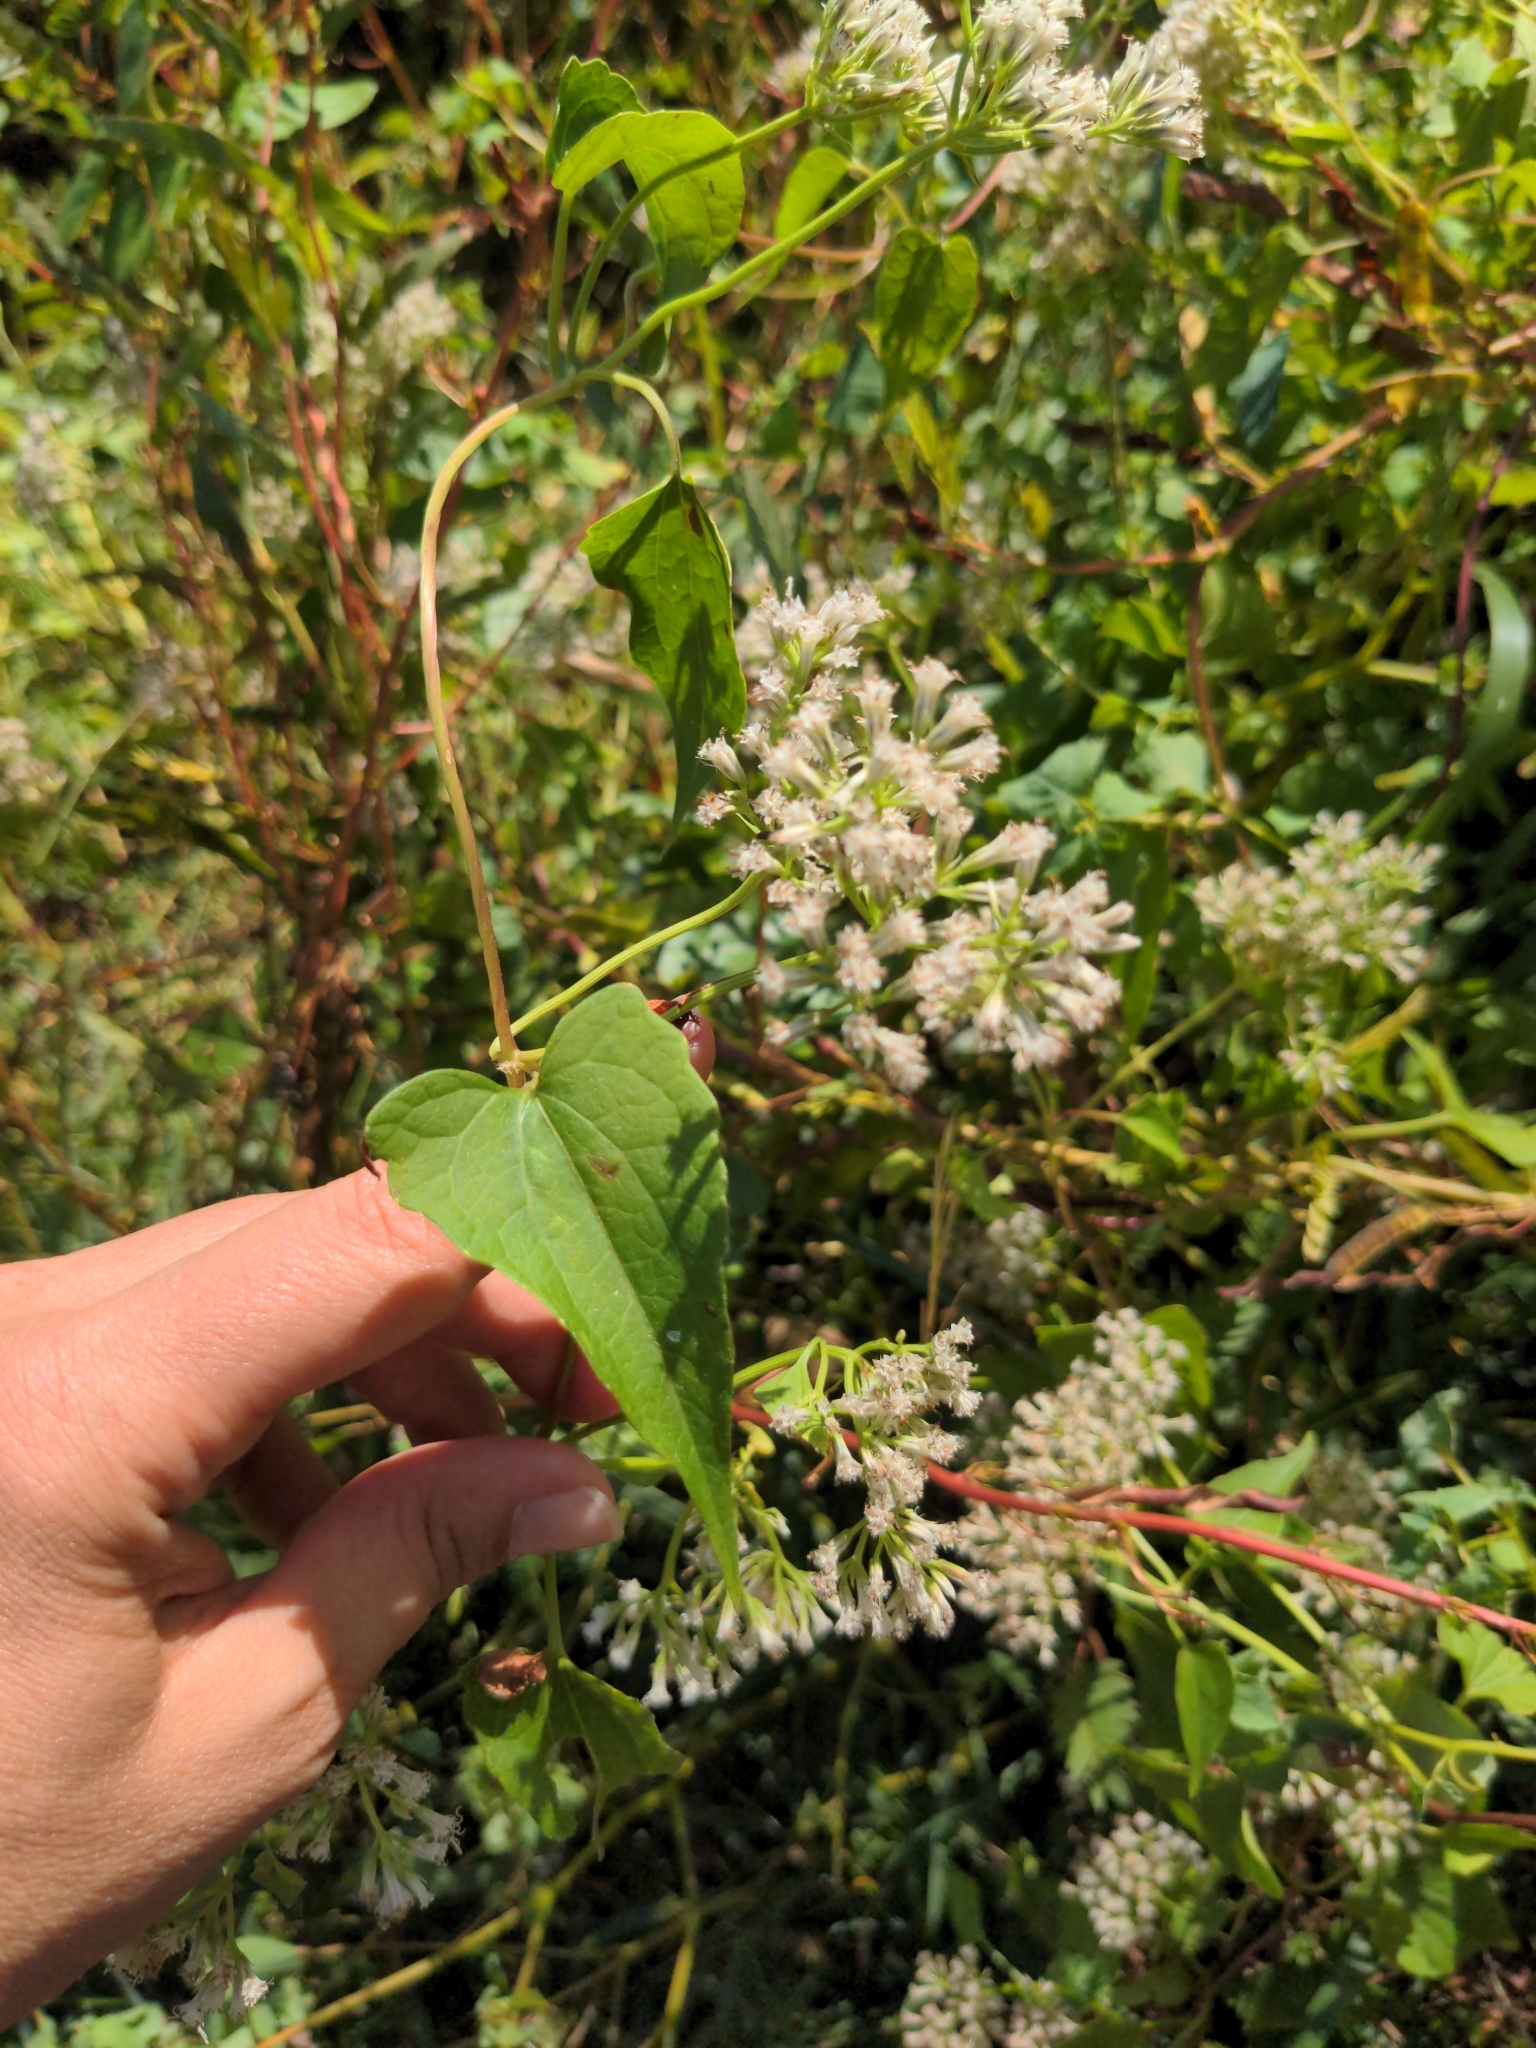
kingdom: Plantae
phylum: Tracheophyta
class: Magnoliopsida
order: Asterales
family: Asteraceae
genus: Mikania
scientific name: Mikania scandens
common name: Climbing hempvine
